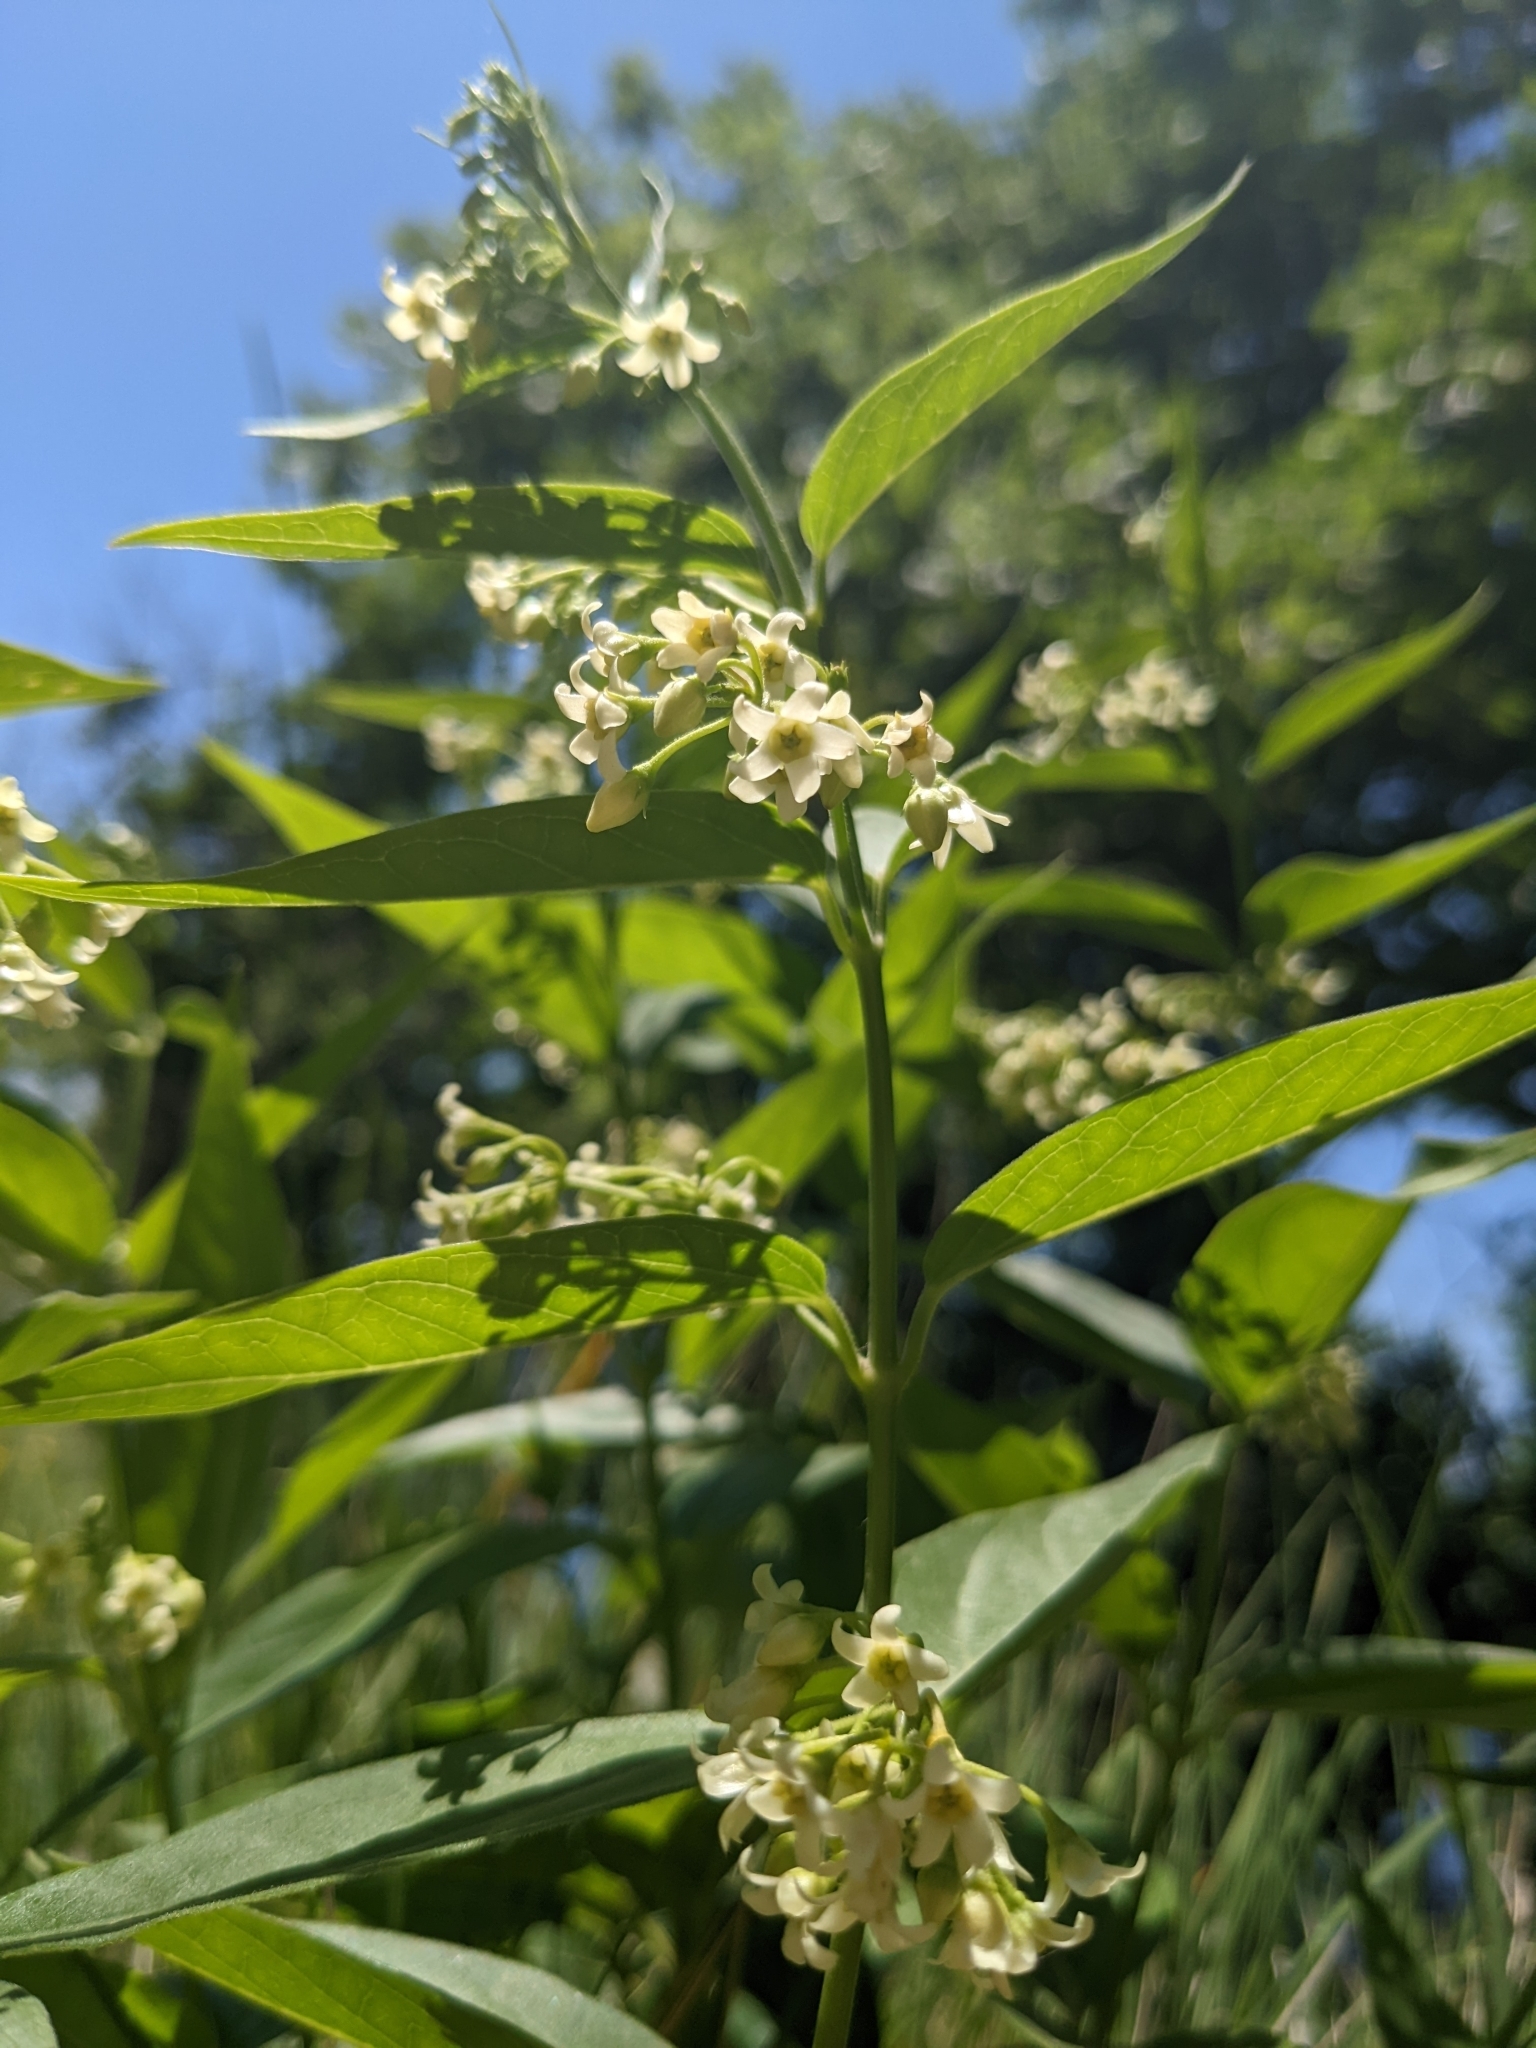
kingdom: Plantae
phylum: Tracheophyta
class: Magnoliopsida
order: Gentianales
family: Apocynaceae
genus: Vincetoxicum
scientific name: Vincetoxicum hirundinaria
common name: White swallowwort
